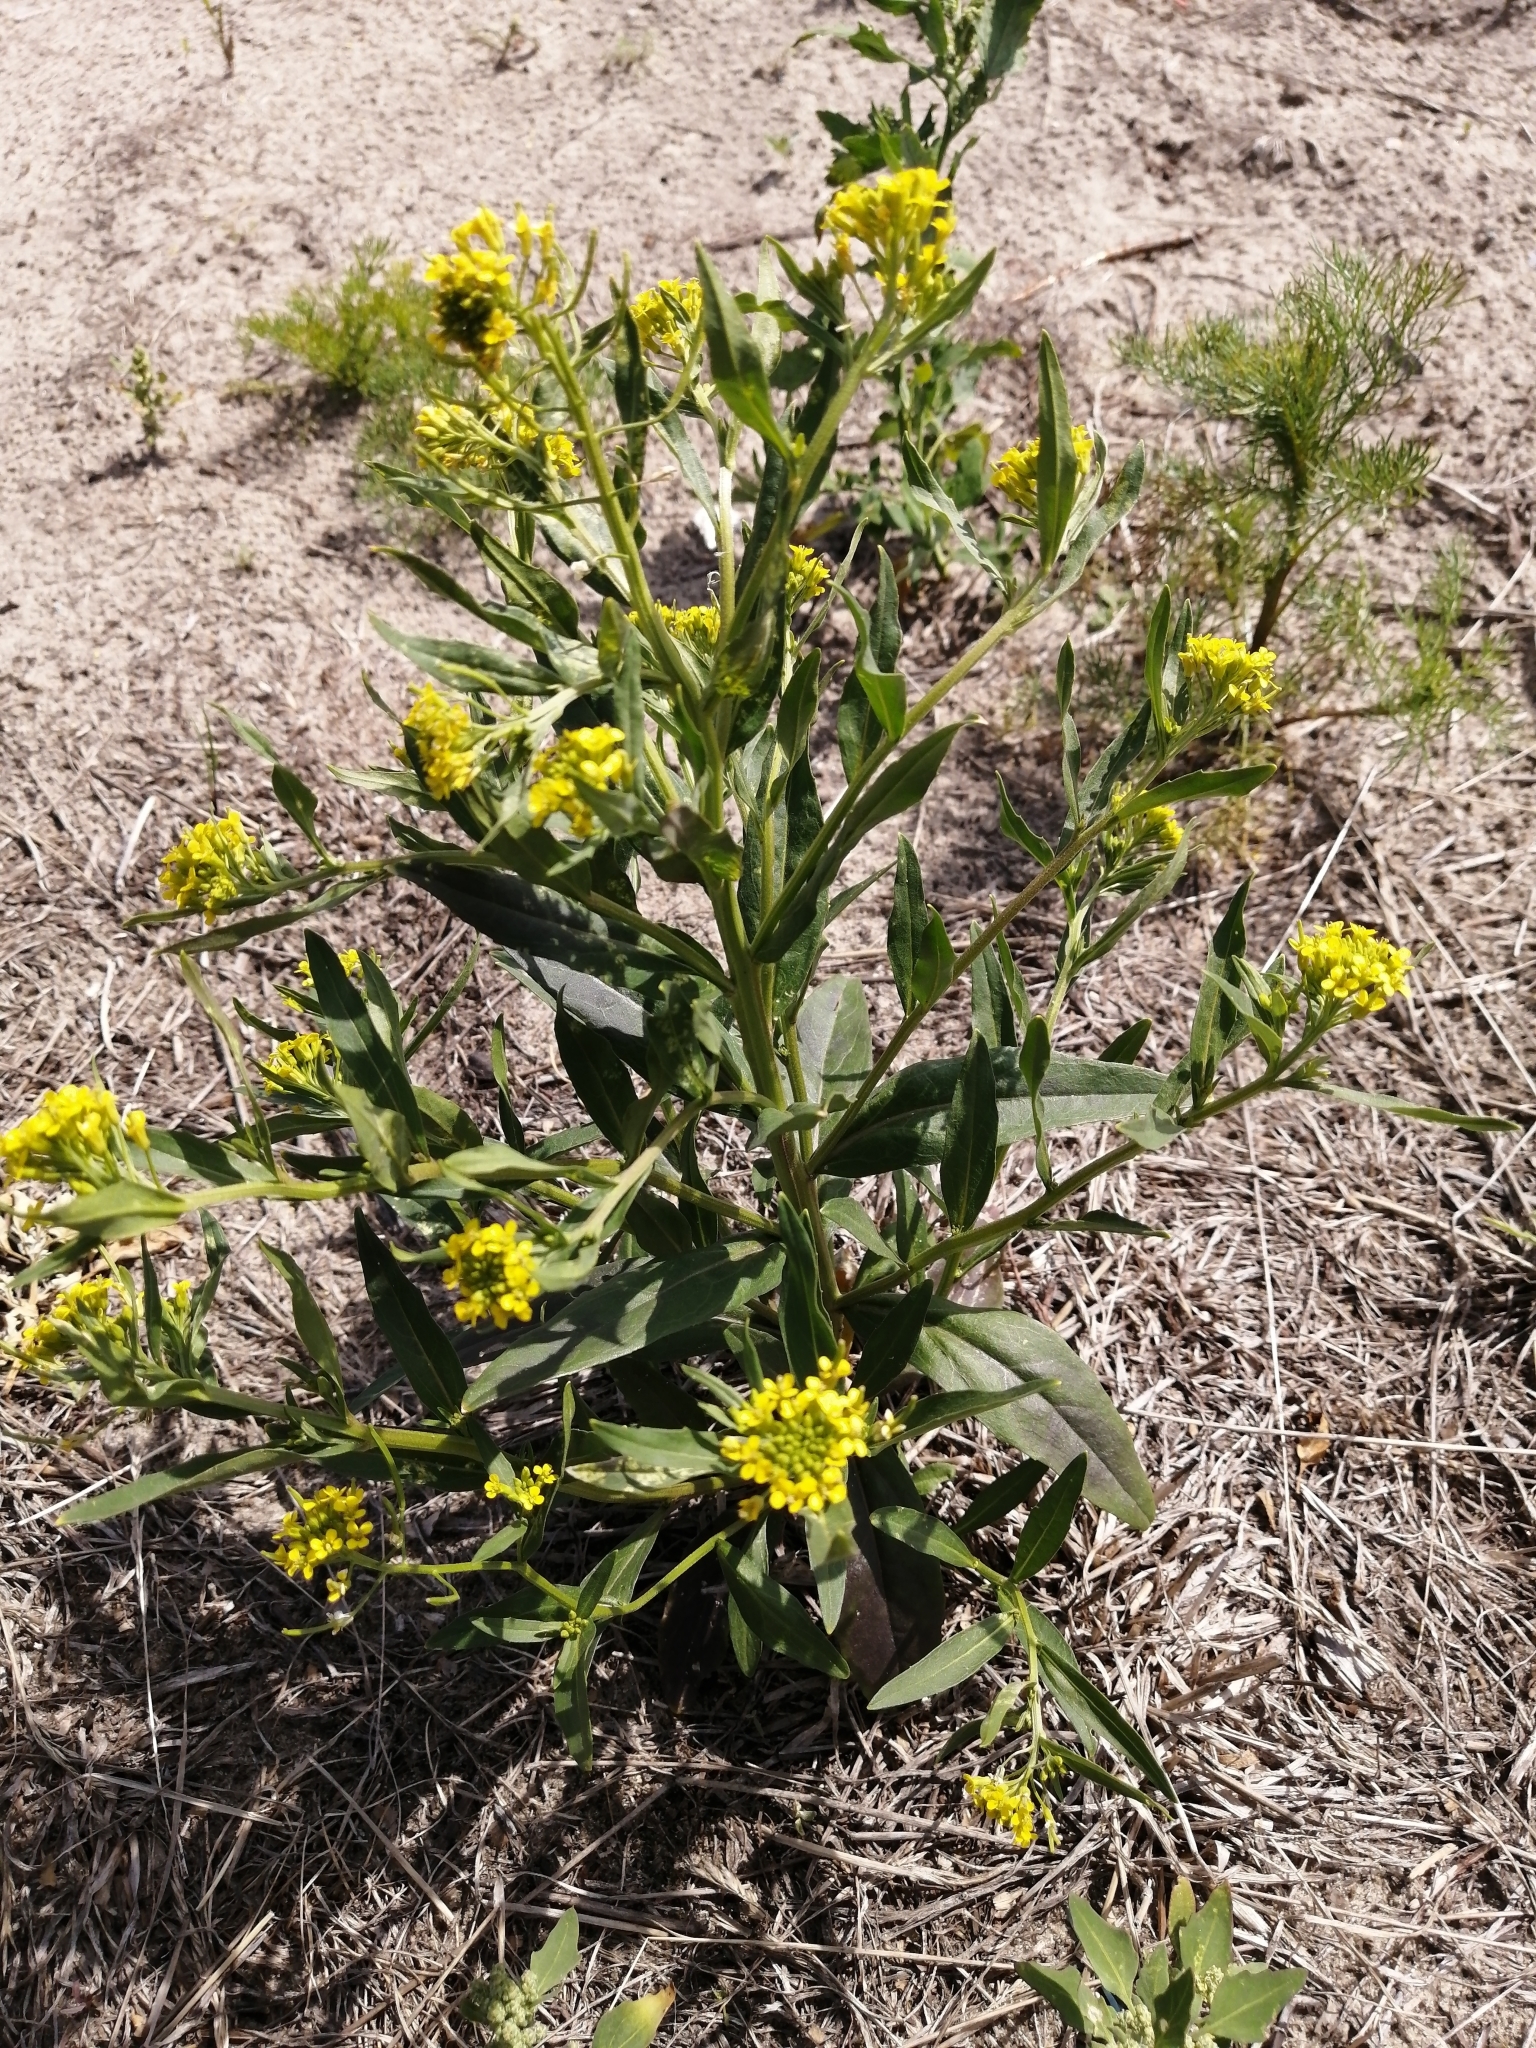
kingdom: Plantae
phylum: Tracheophyta
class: Magnoliopsida
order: Brassicales
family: Brassicaceae
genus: Erysimum
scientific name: Erysimum cheiranthoides
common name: Treacle mustard
